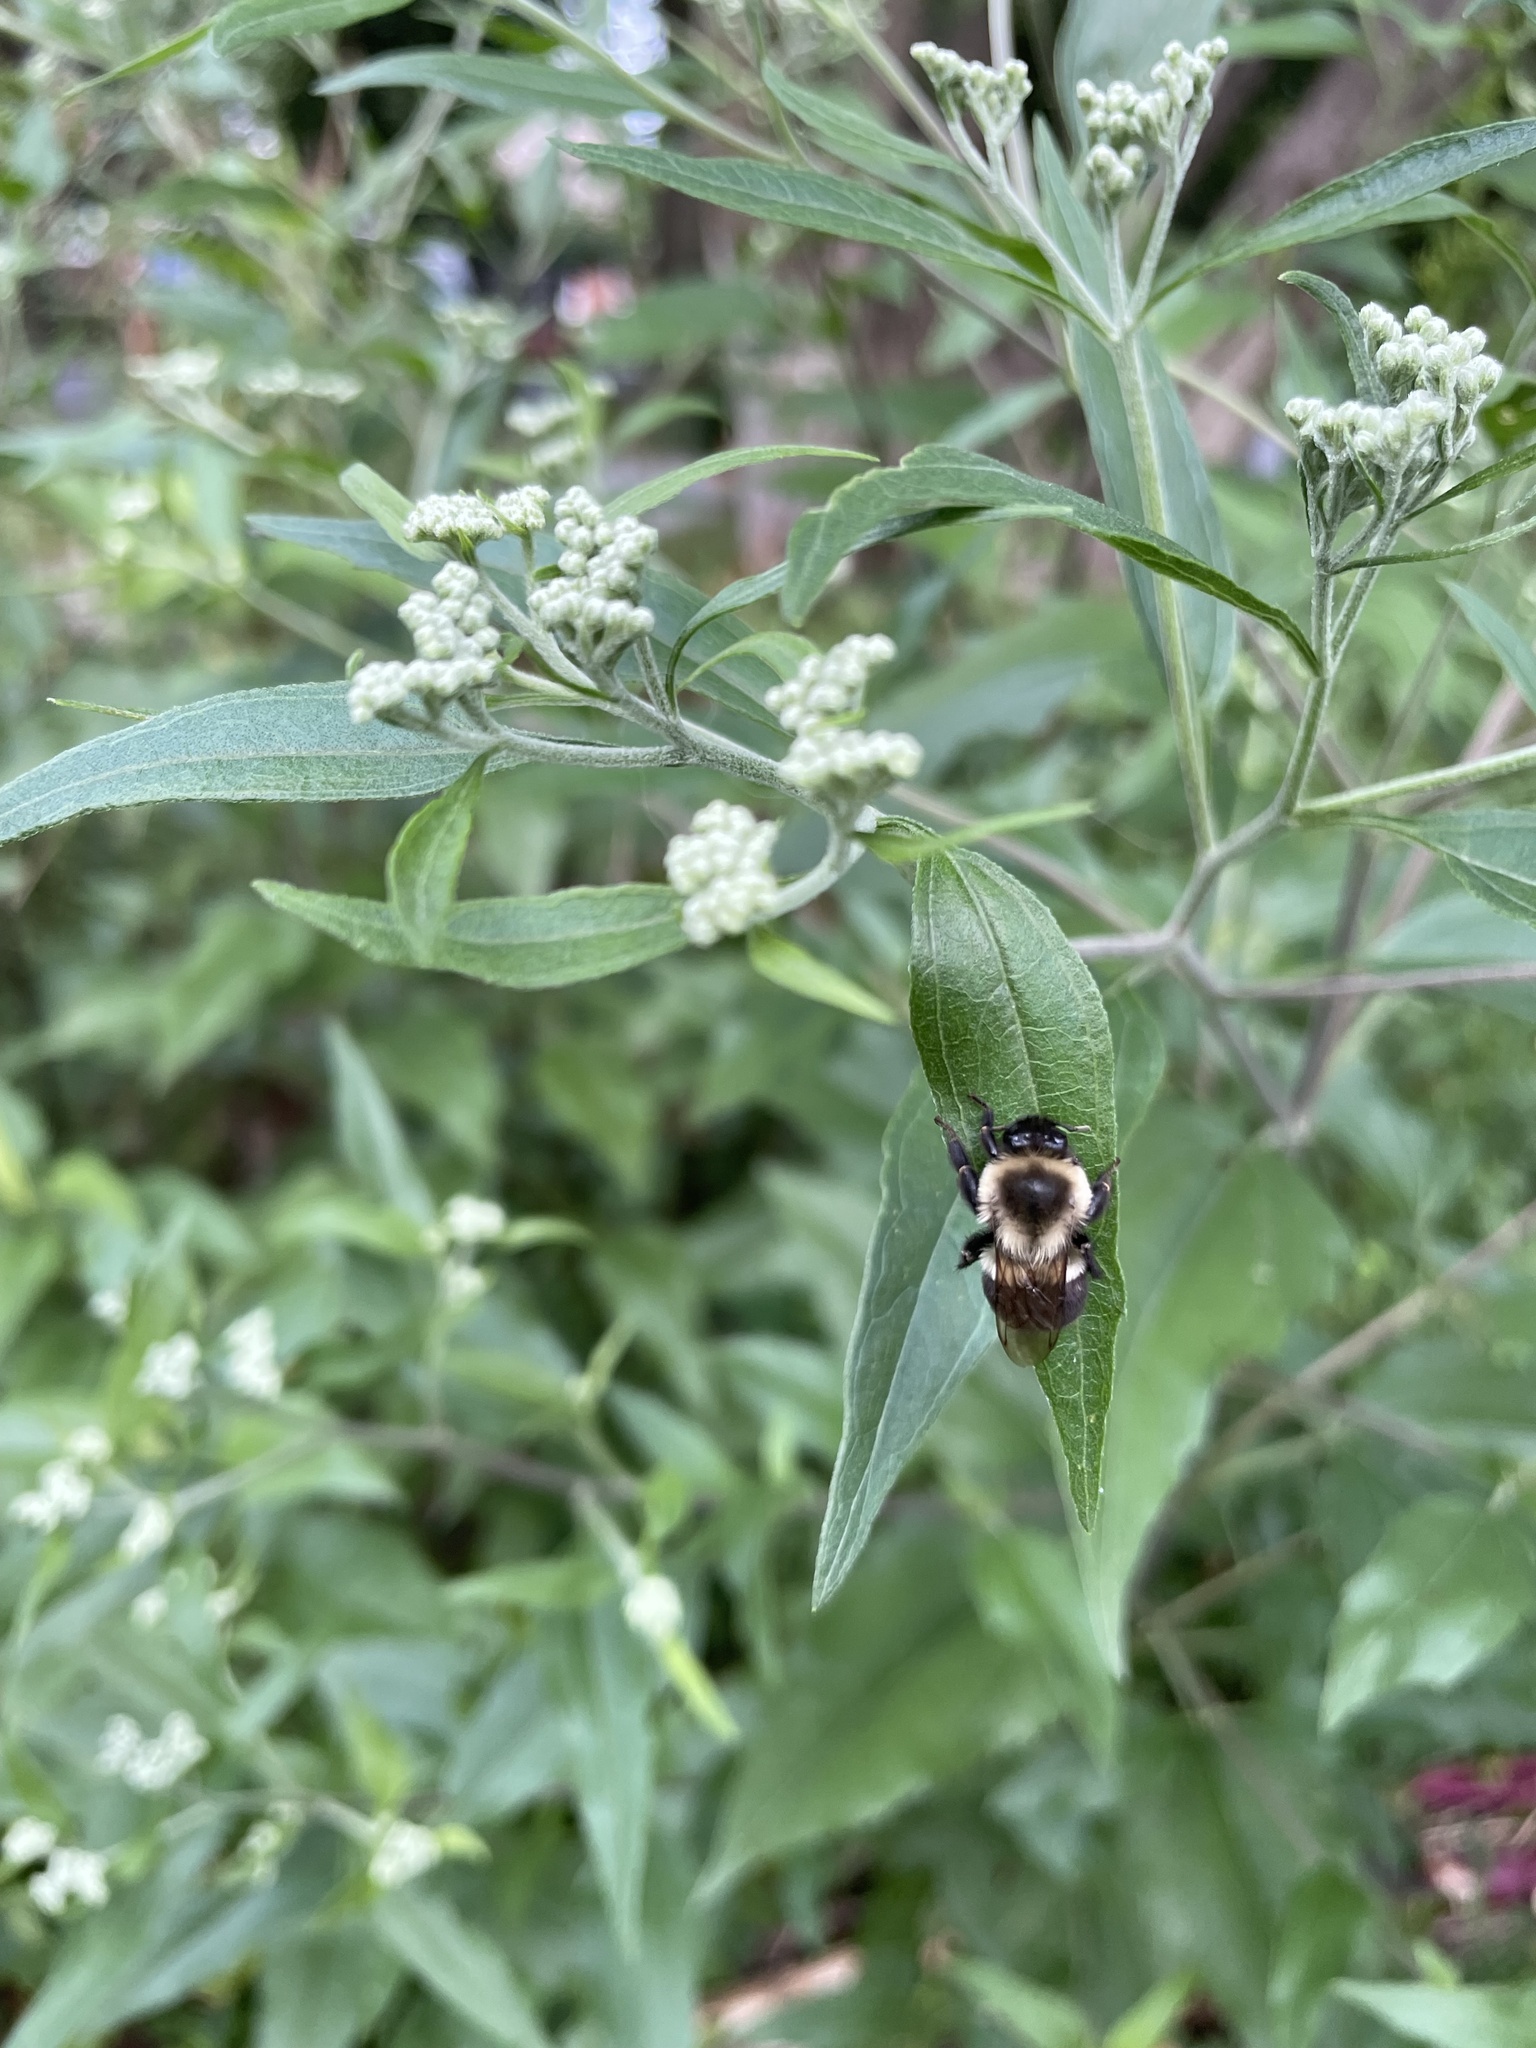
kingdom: Animalia
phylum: Arthropoda
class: Insecta
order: Hymenoptera
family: Apidae
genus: Bombus
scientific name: Bombus impatiens
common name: Common eastern bumble bee
